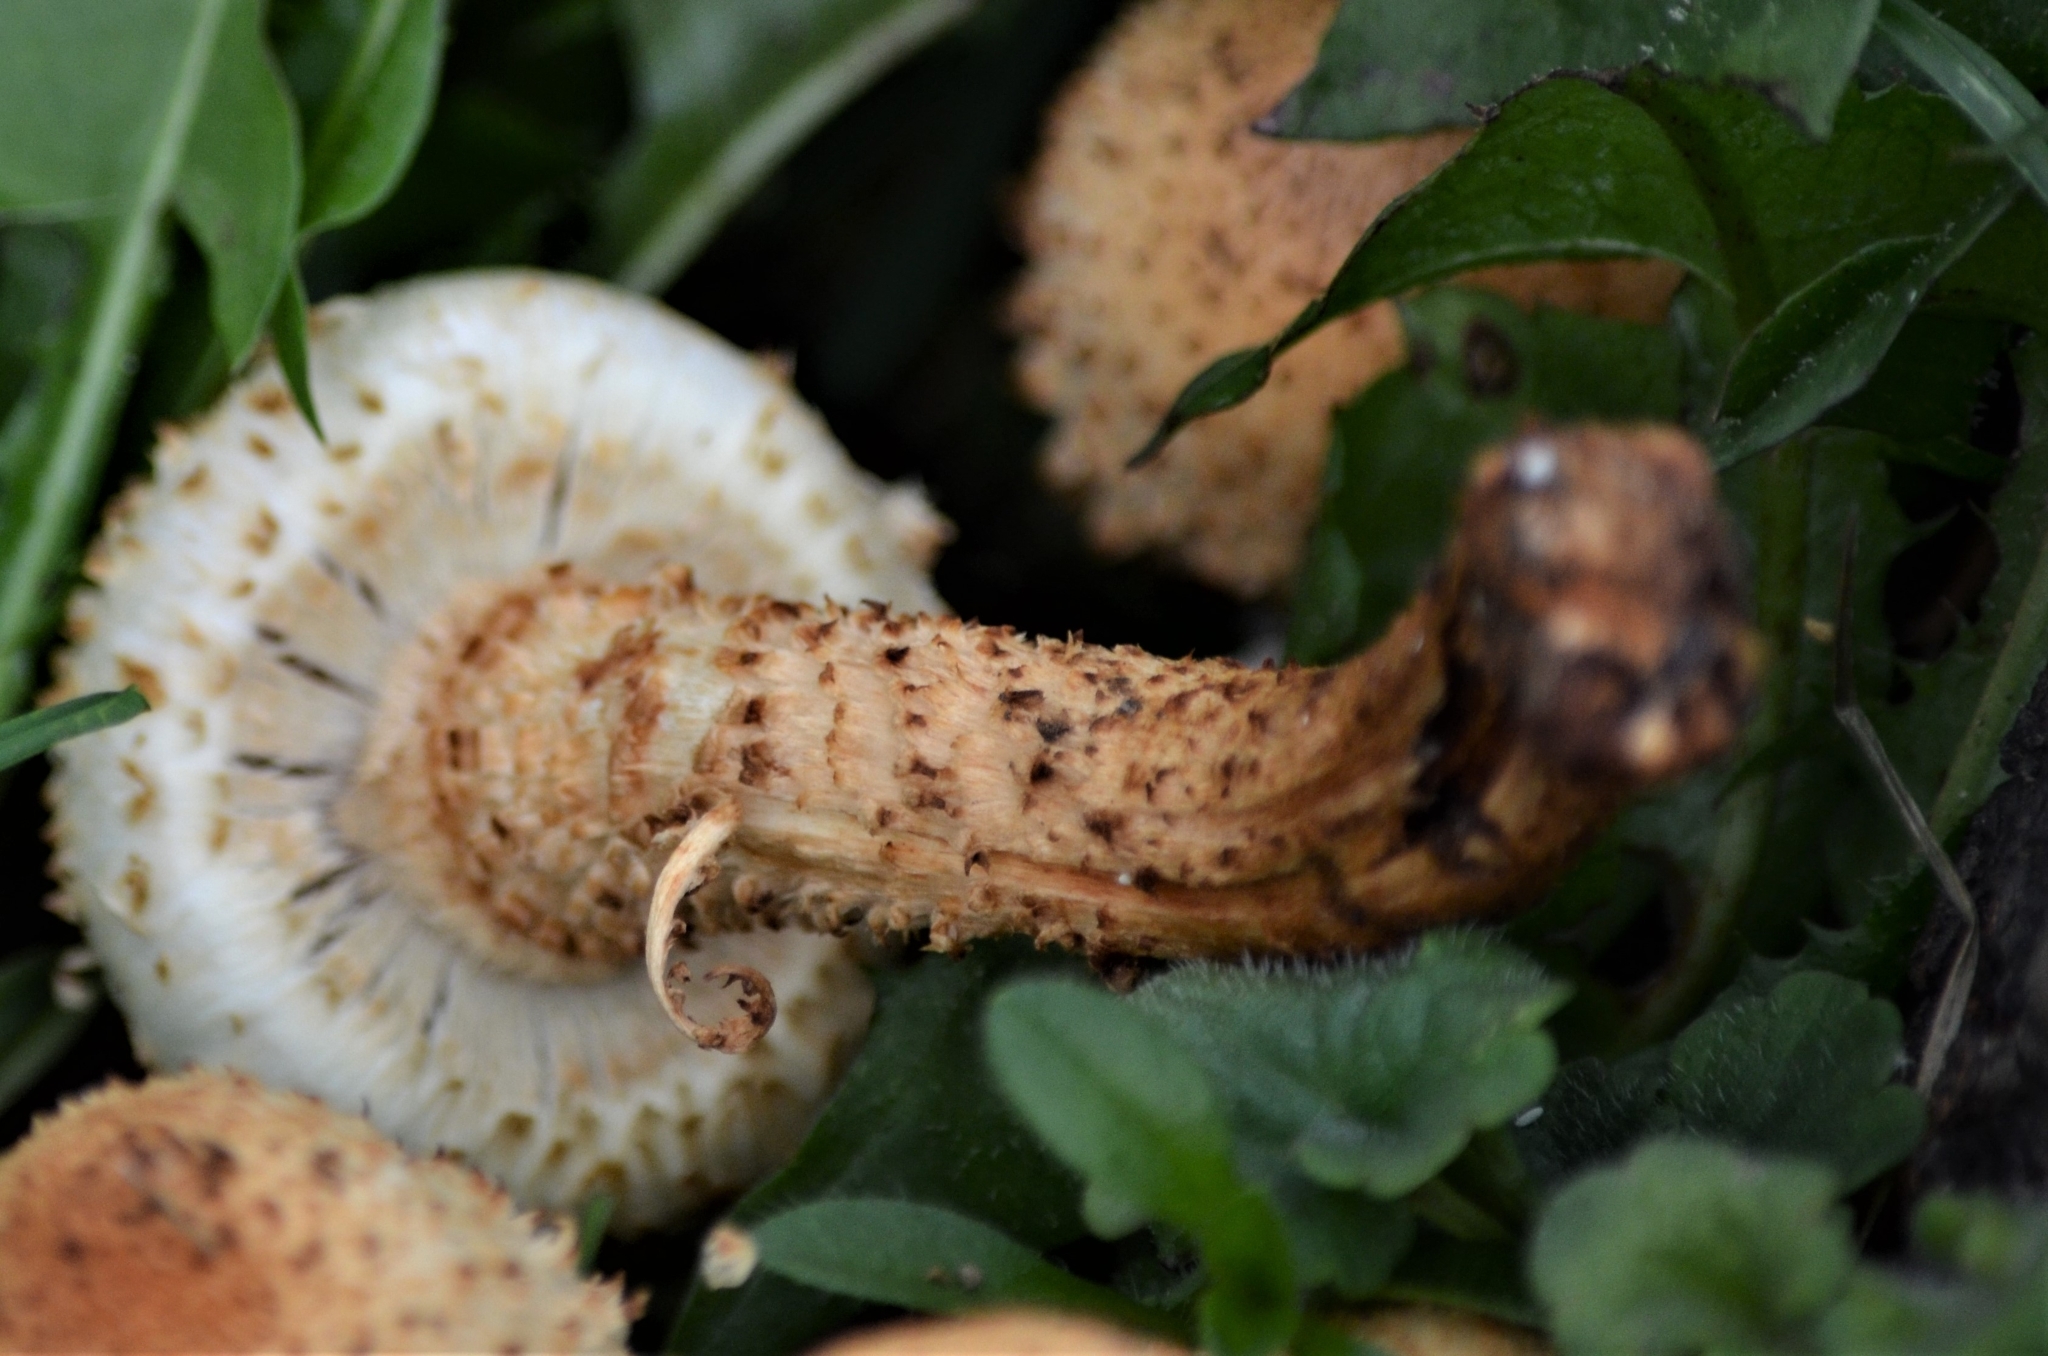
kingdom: Fungi
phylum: Basidiomycota
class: Agaricomycetes
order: Agaricales
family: Strophariaceae
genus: Pholiota
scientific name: Pholiota squarrosa
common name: Shaggy pholiota
